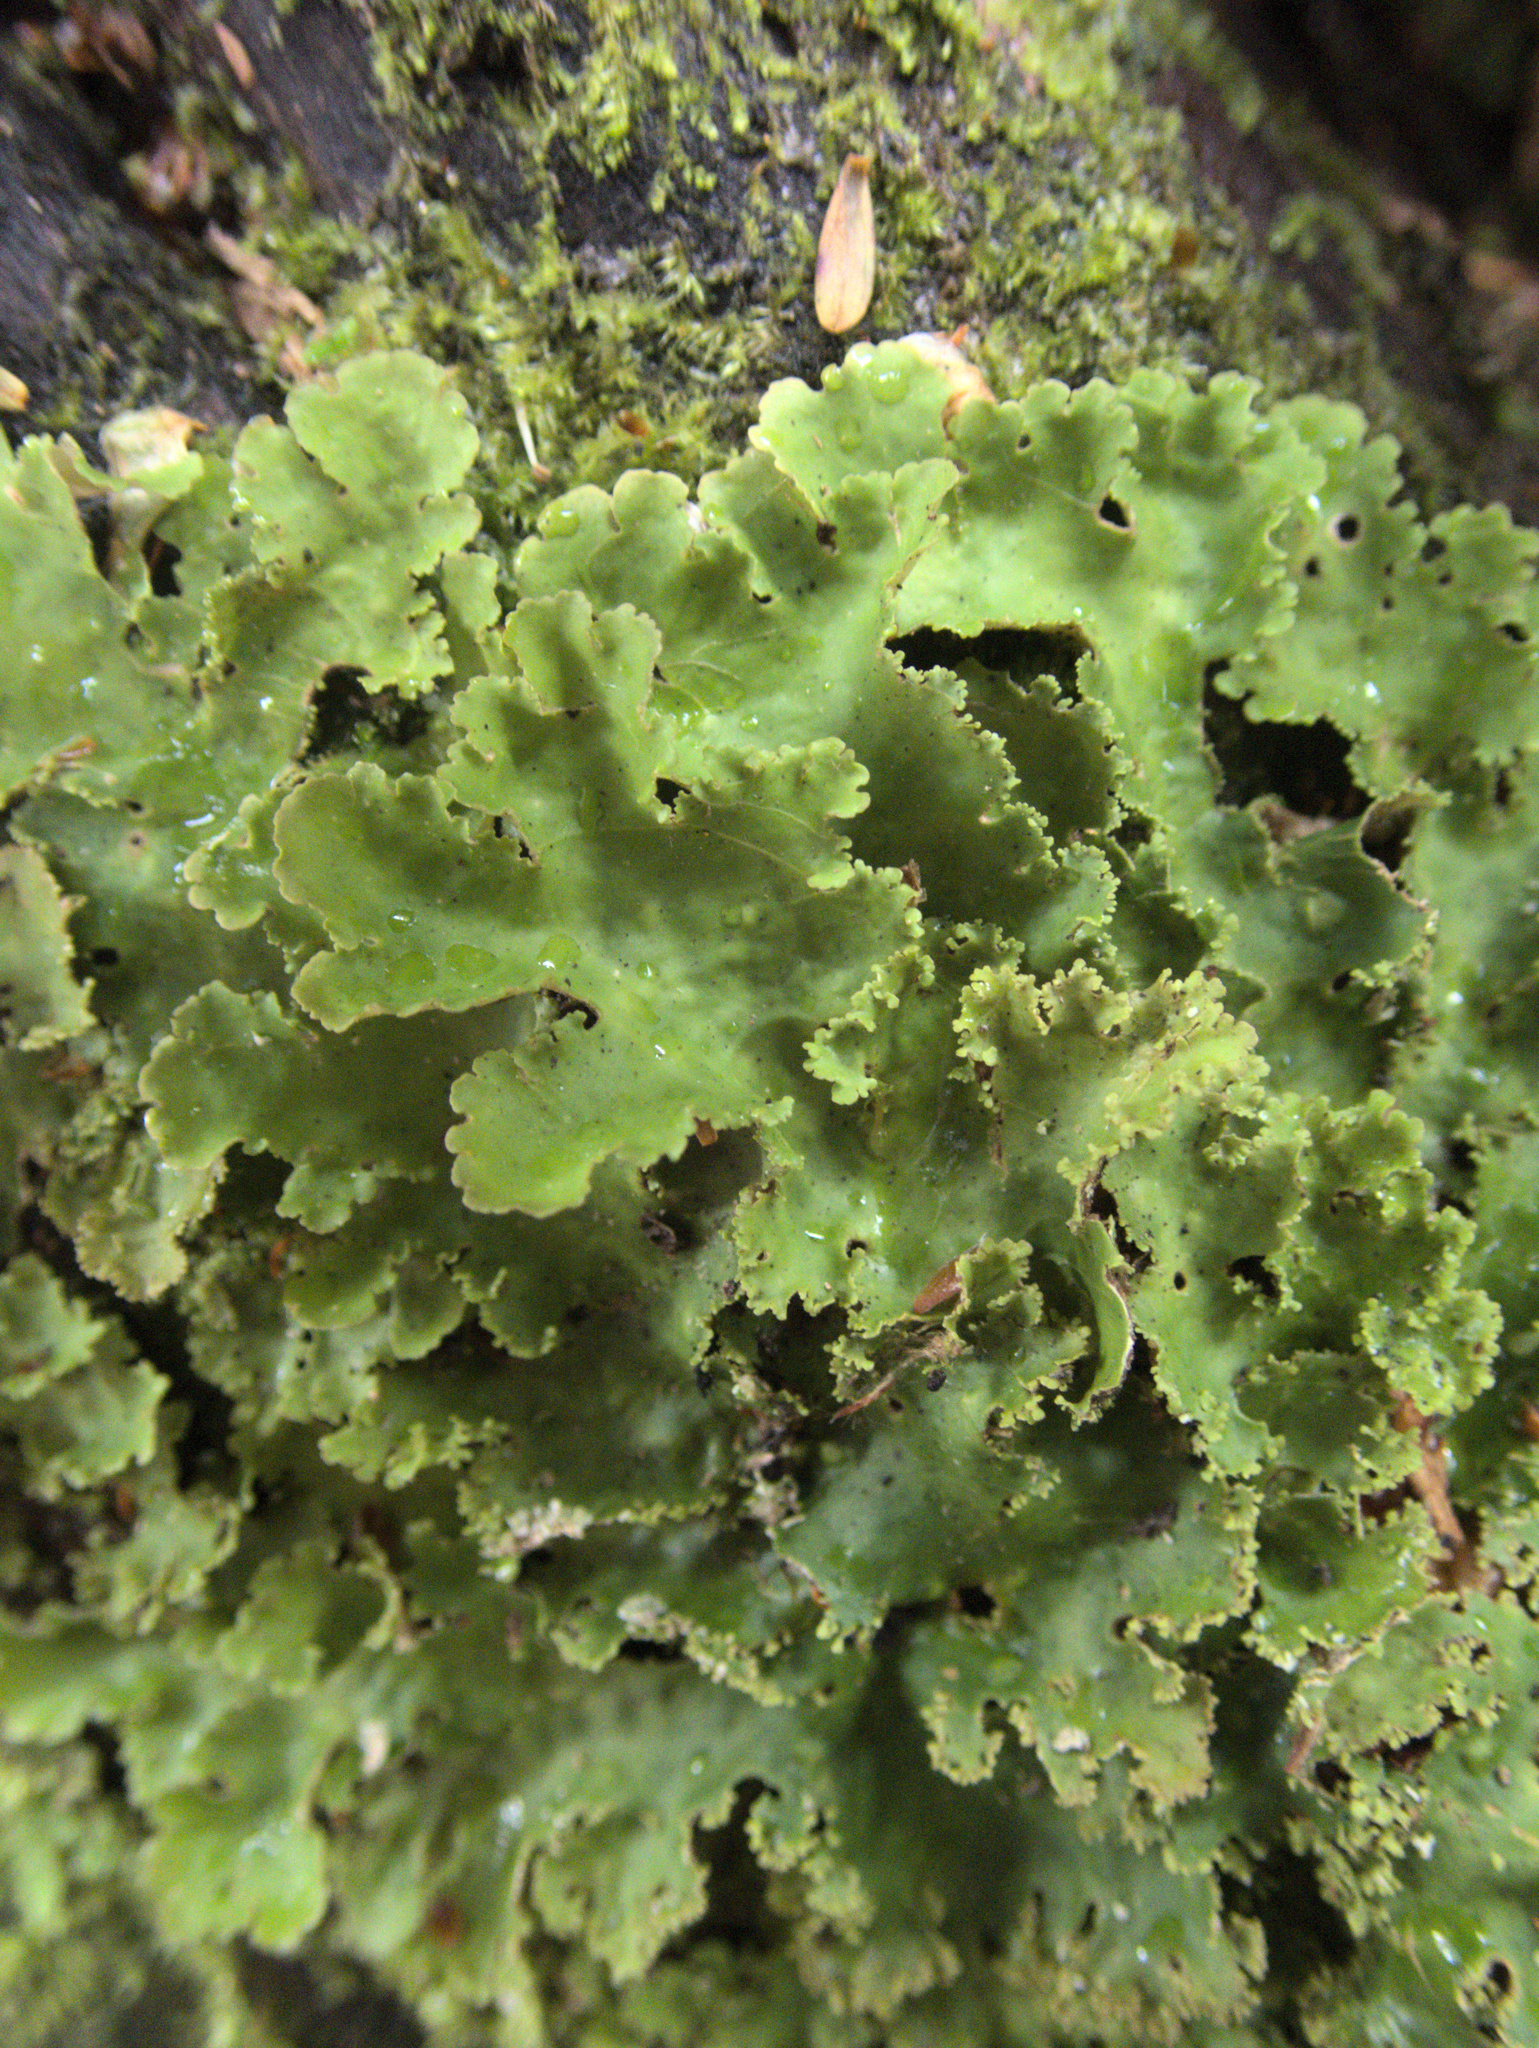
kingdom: Fungi
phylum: Ascomycota
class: Lecanoromycetes
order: Peltigerales
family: Lobariaceae
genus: Sticta
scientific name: Sticta martinii
